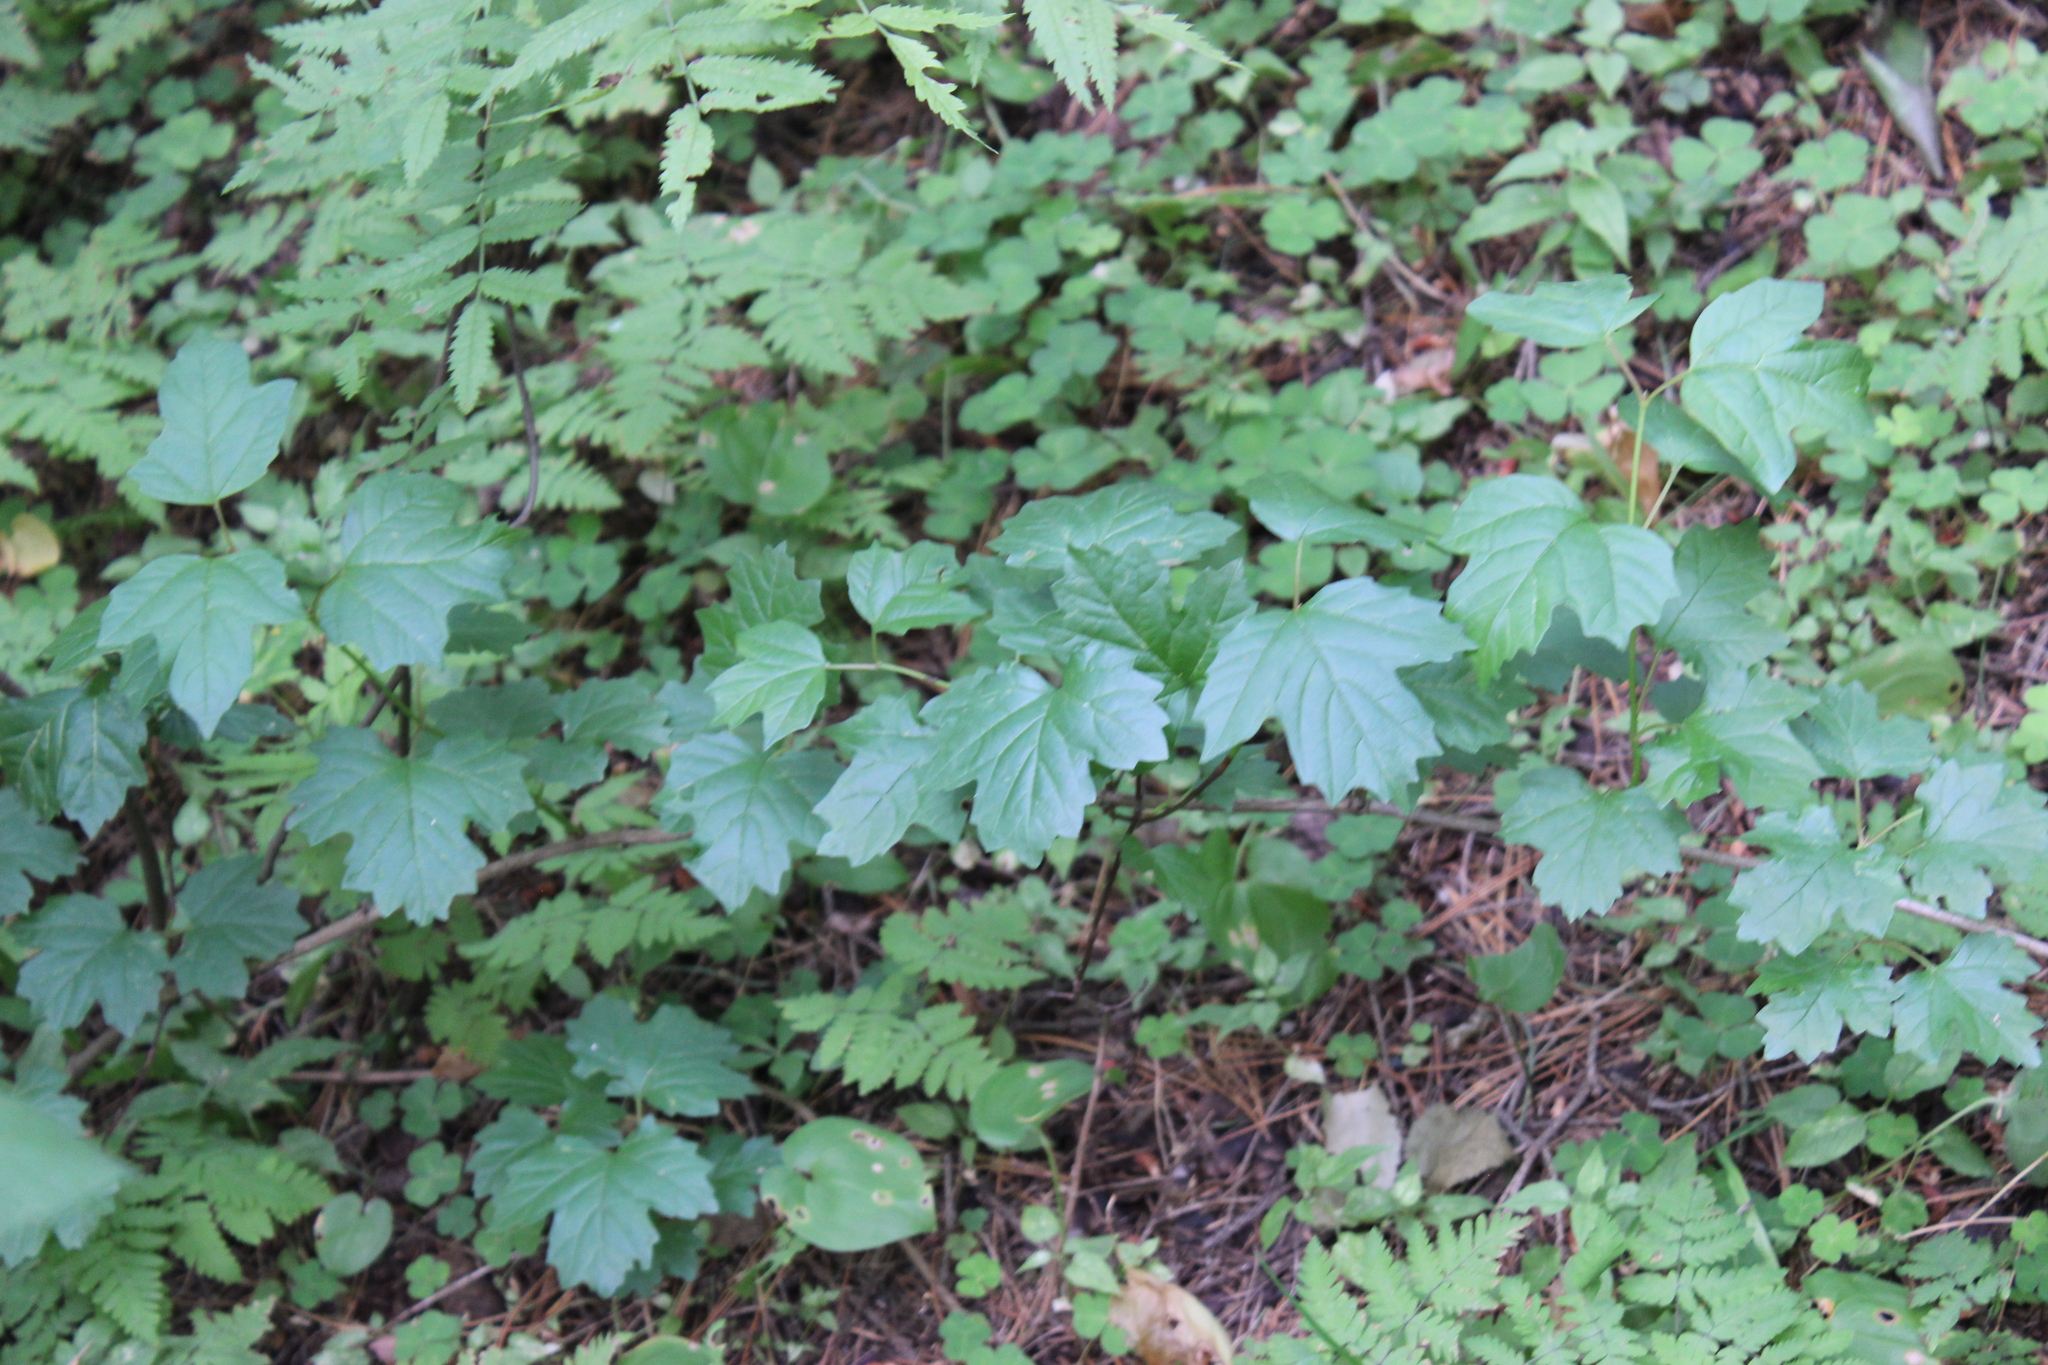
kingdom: Plantae
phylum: Tracheophyta
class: Magnoliopsida
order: Dipsacales
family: Viburnaceae
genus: Viburnum
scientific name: Viburnum opulus
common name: Guelder-rose
